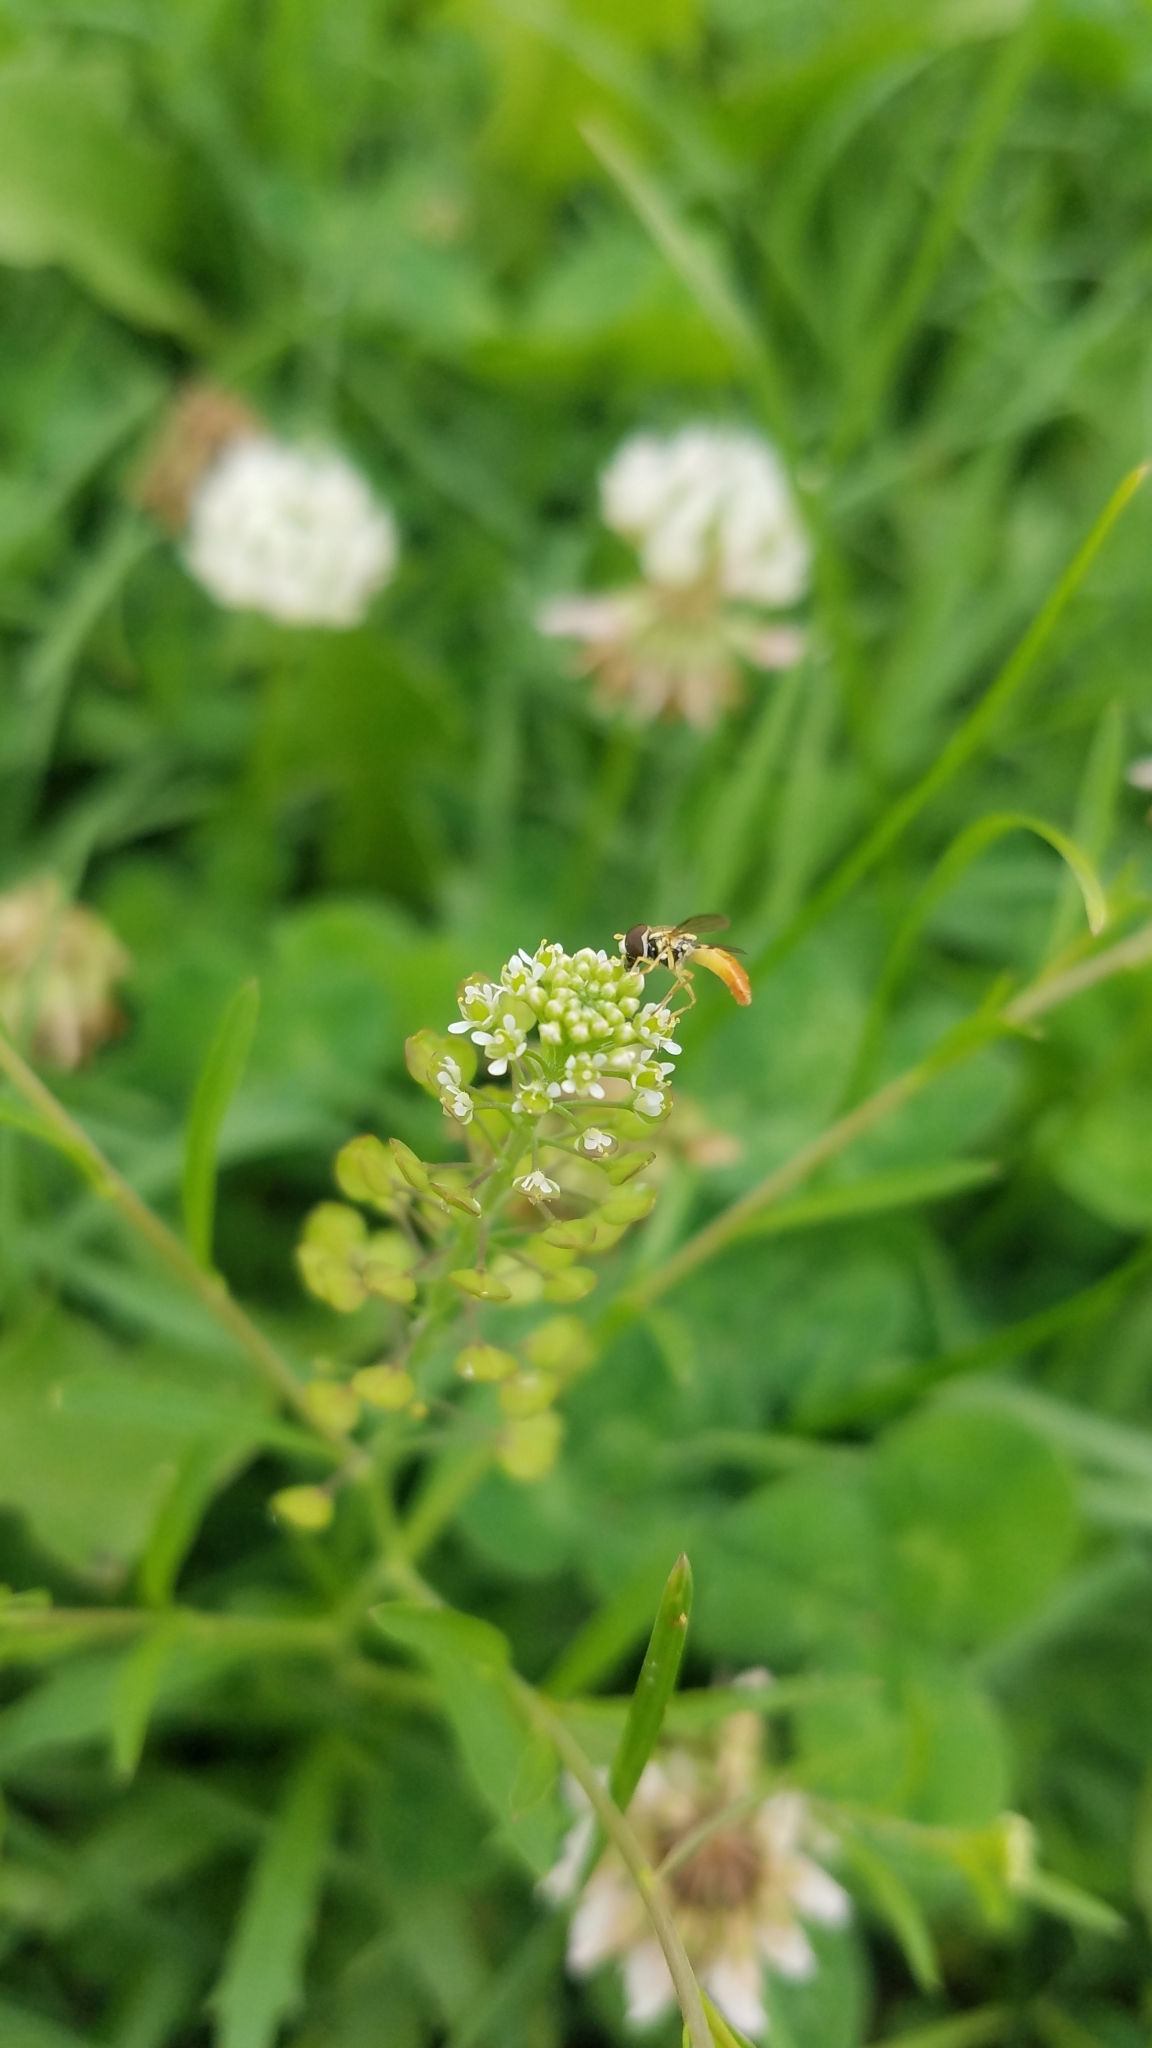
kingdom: Animalia
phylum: Arthropoda
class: Insecta
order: Diptera
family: Syrphidae
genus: Toxomerus
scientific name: Toxomerus marginatus
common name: Syrphid fly
